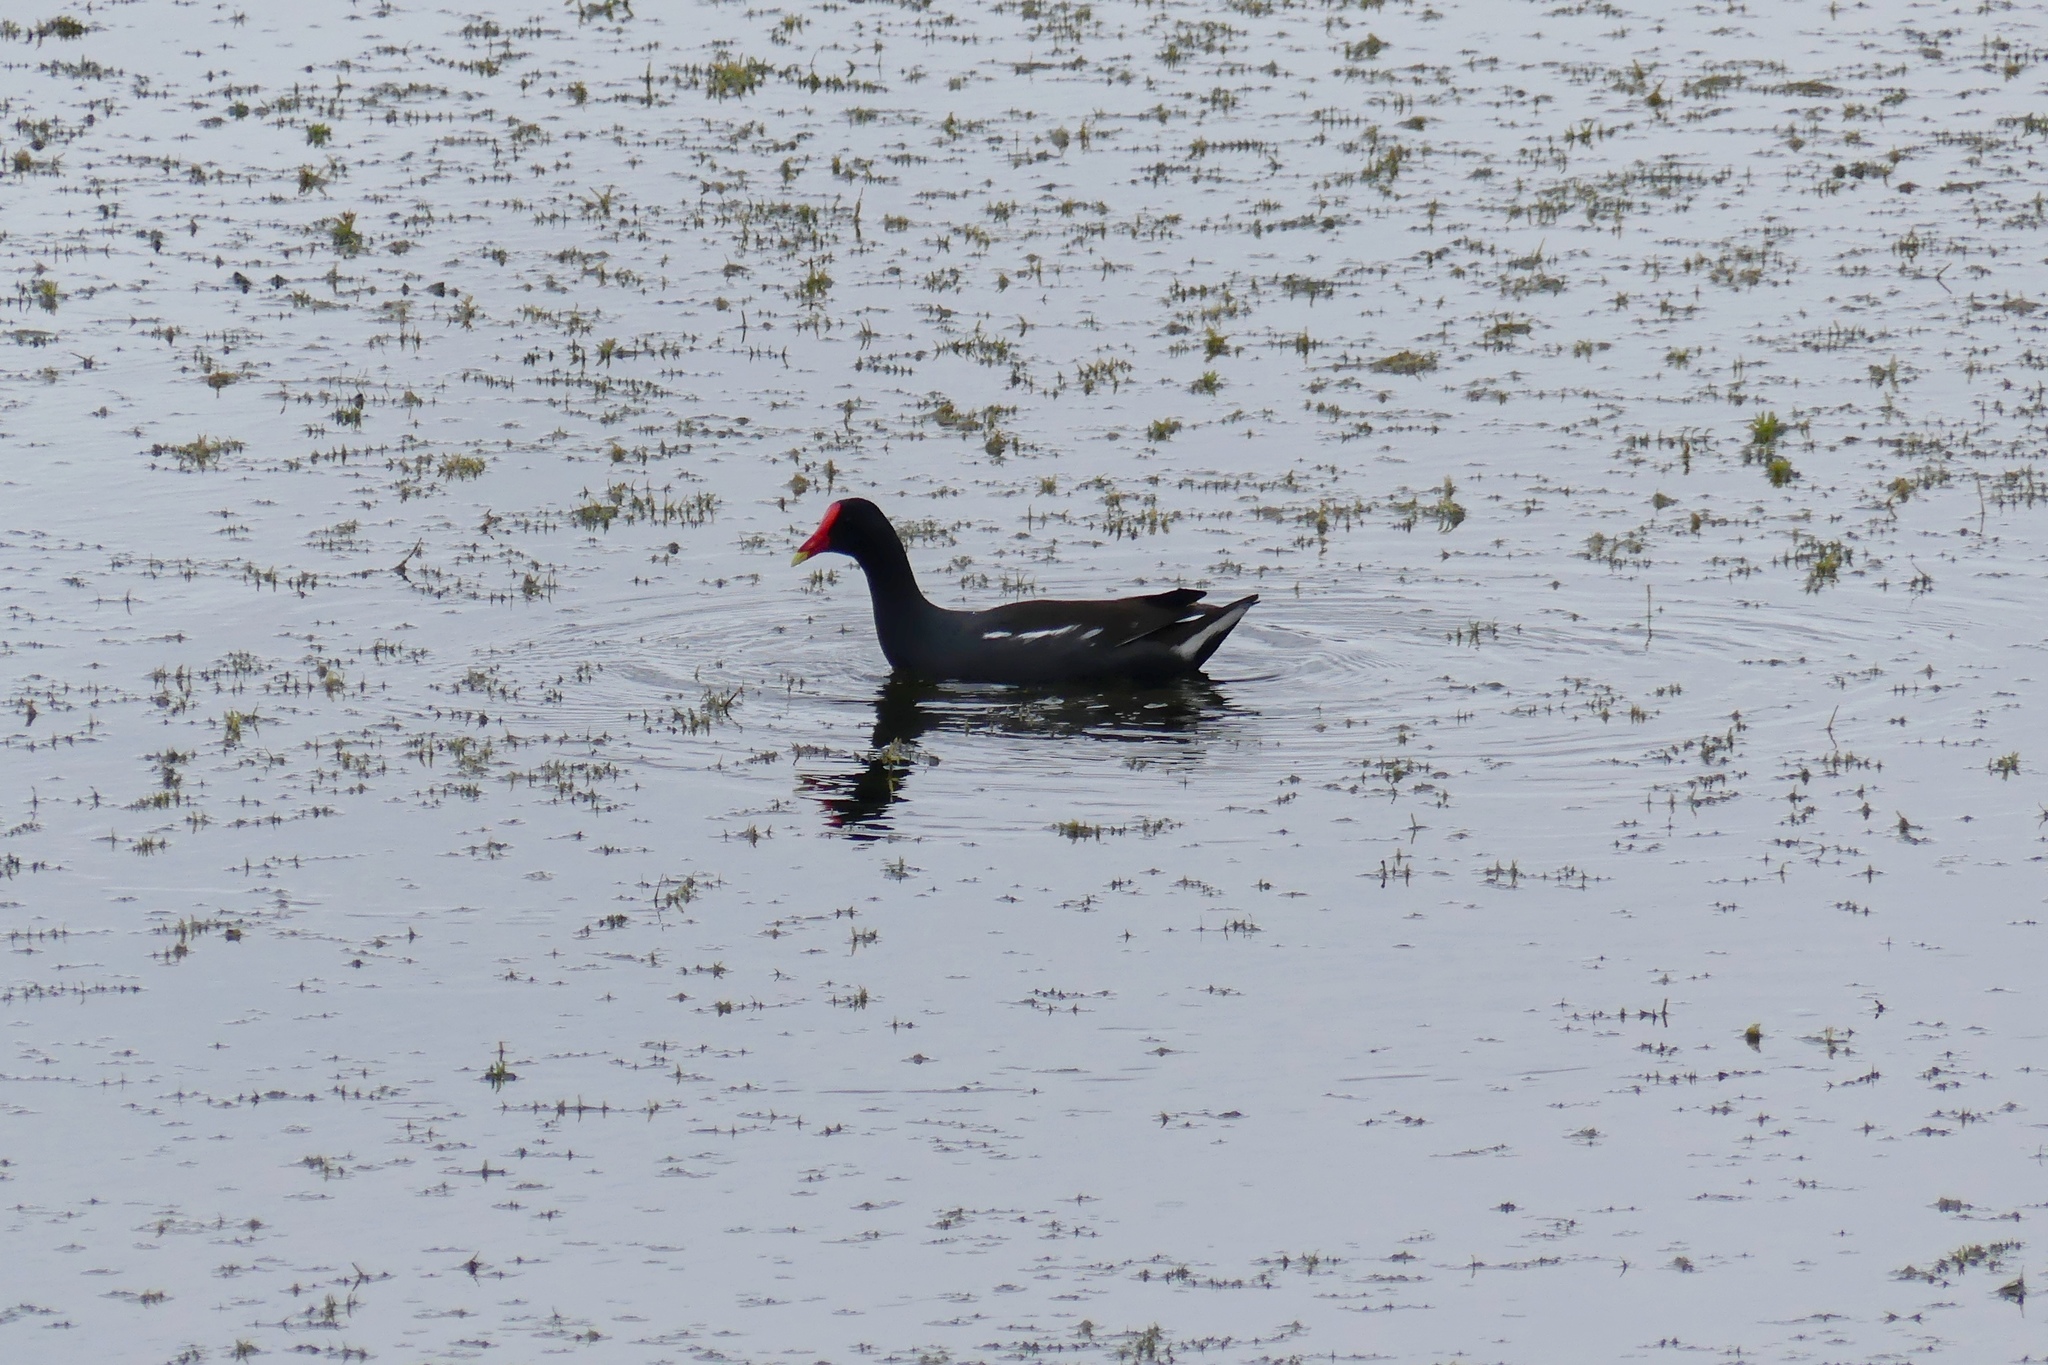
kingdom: Animalia
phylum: Chordata
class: Aves
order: Gruiformes
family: Rallidae
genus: Gallinula
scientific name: Gallinula chloropus
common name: Common moorhen
